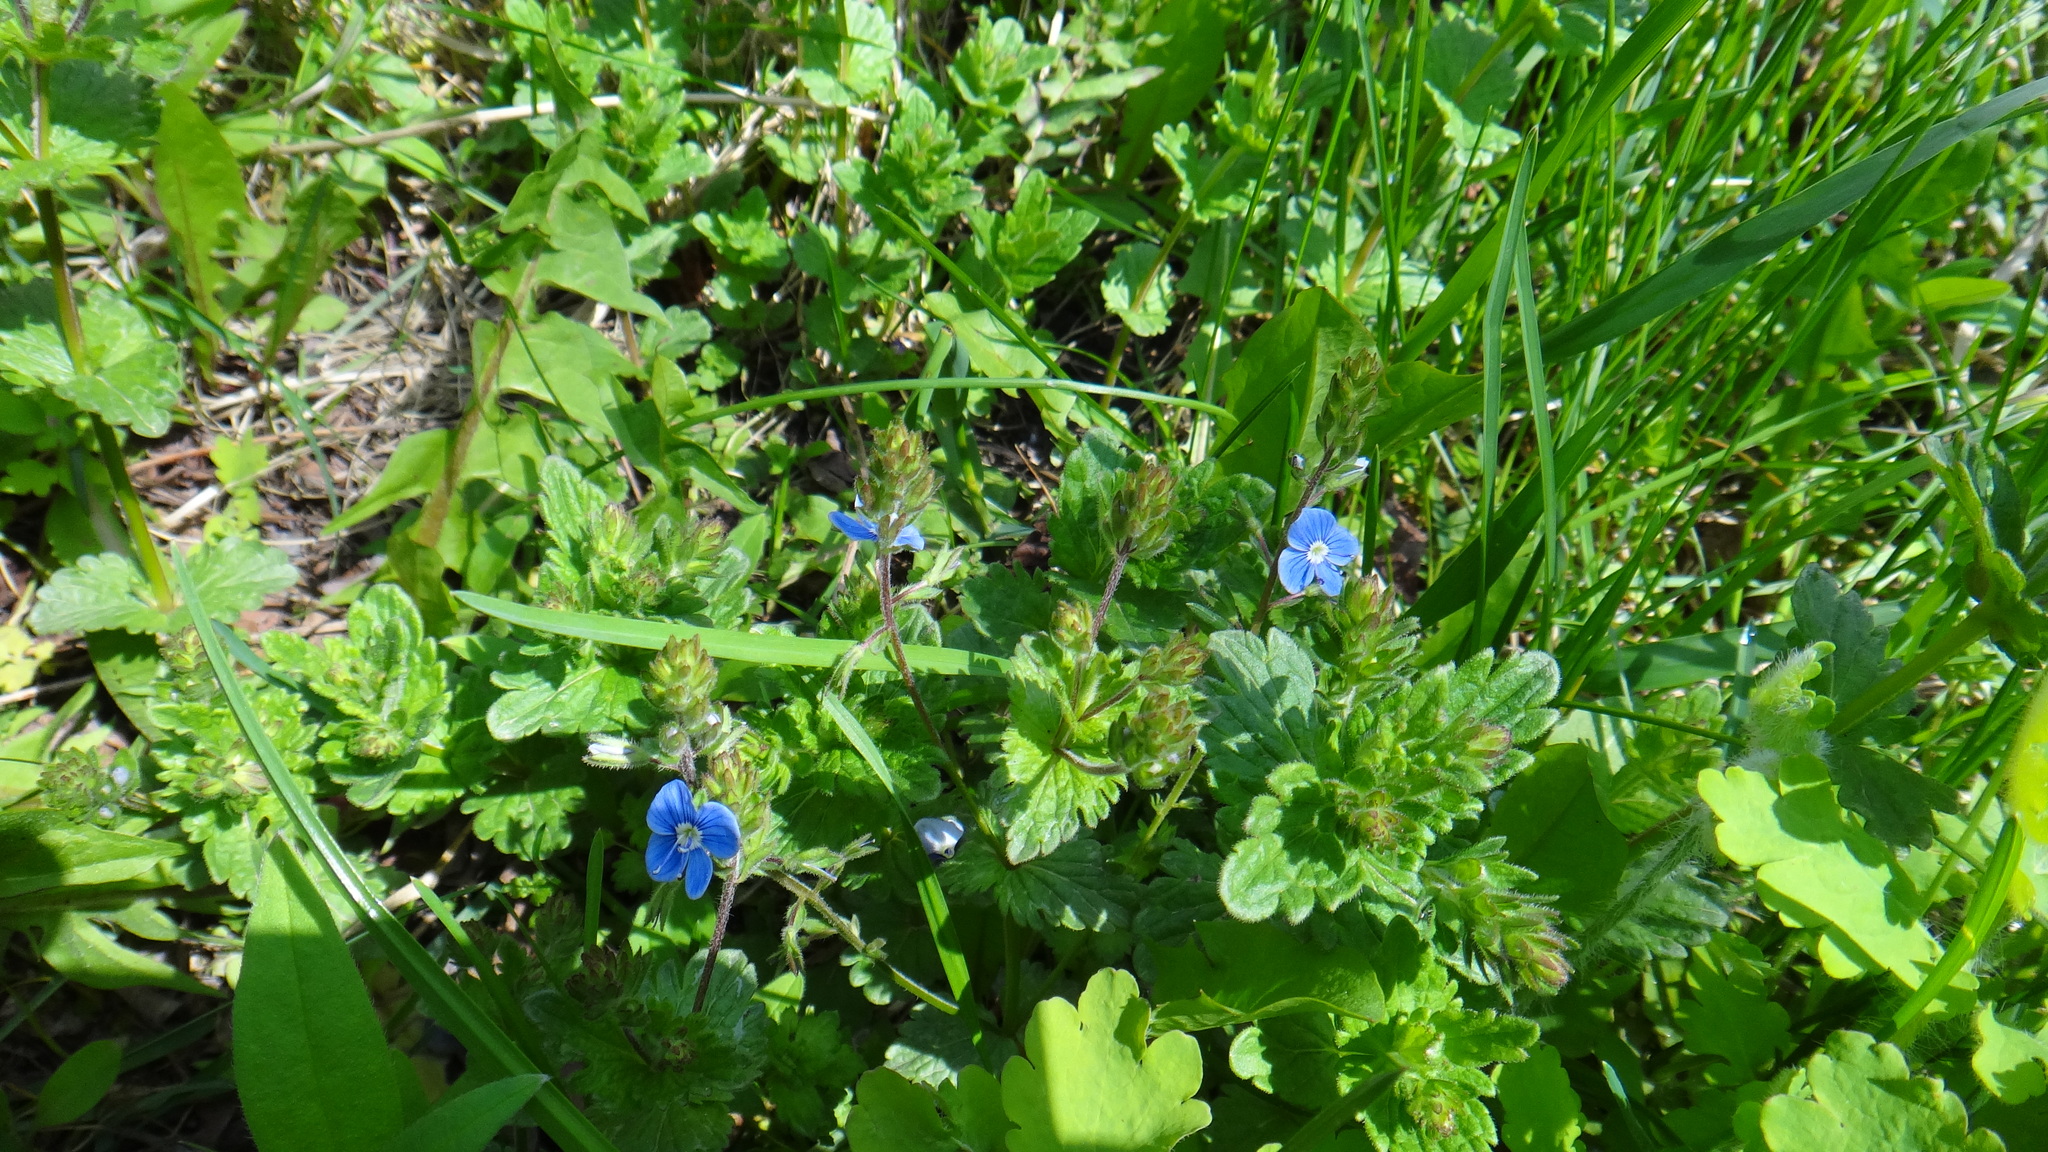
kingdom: Plantae
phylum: Tracheophyta
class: Magnoliopsida
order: Lamiales
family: Plantaginaceae
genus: Veronica
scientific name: Veronica chamaedrys
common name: Germander speedwell
